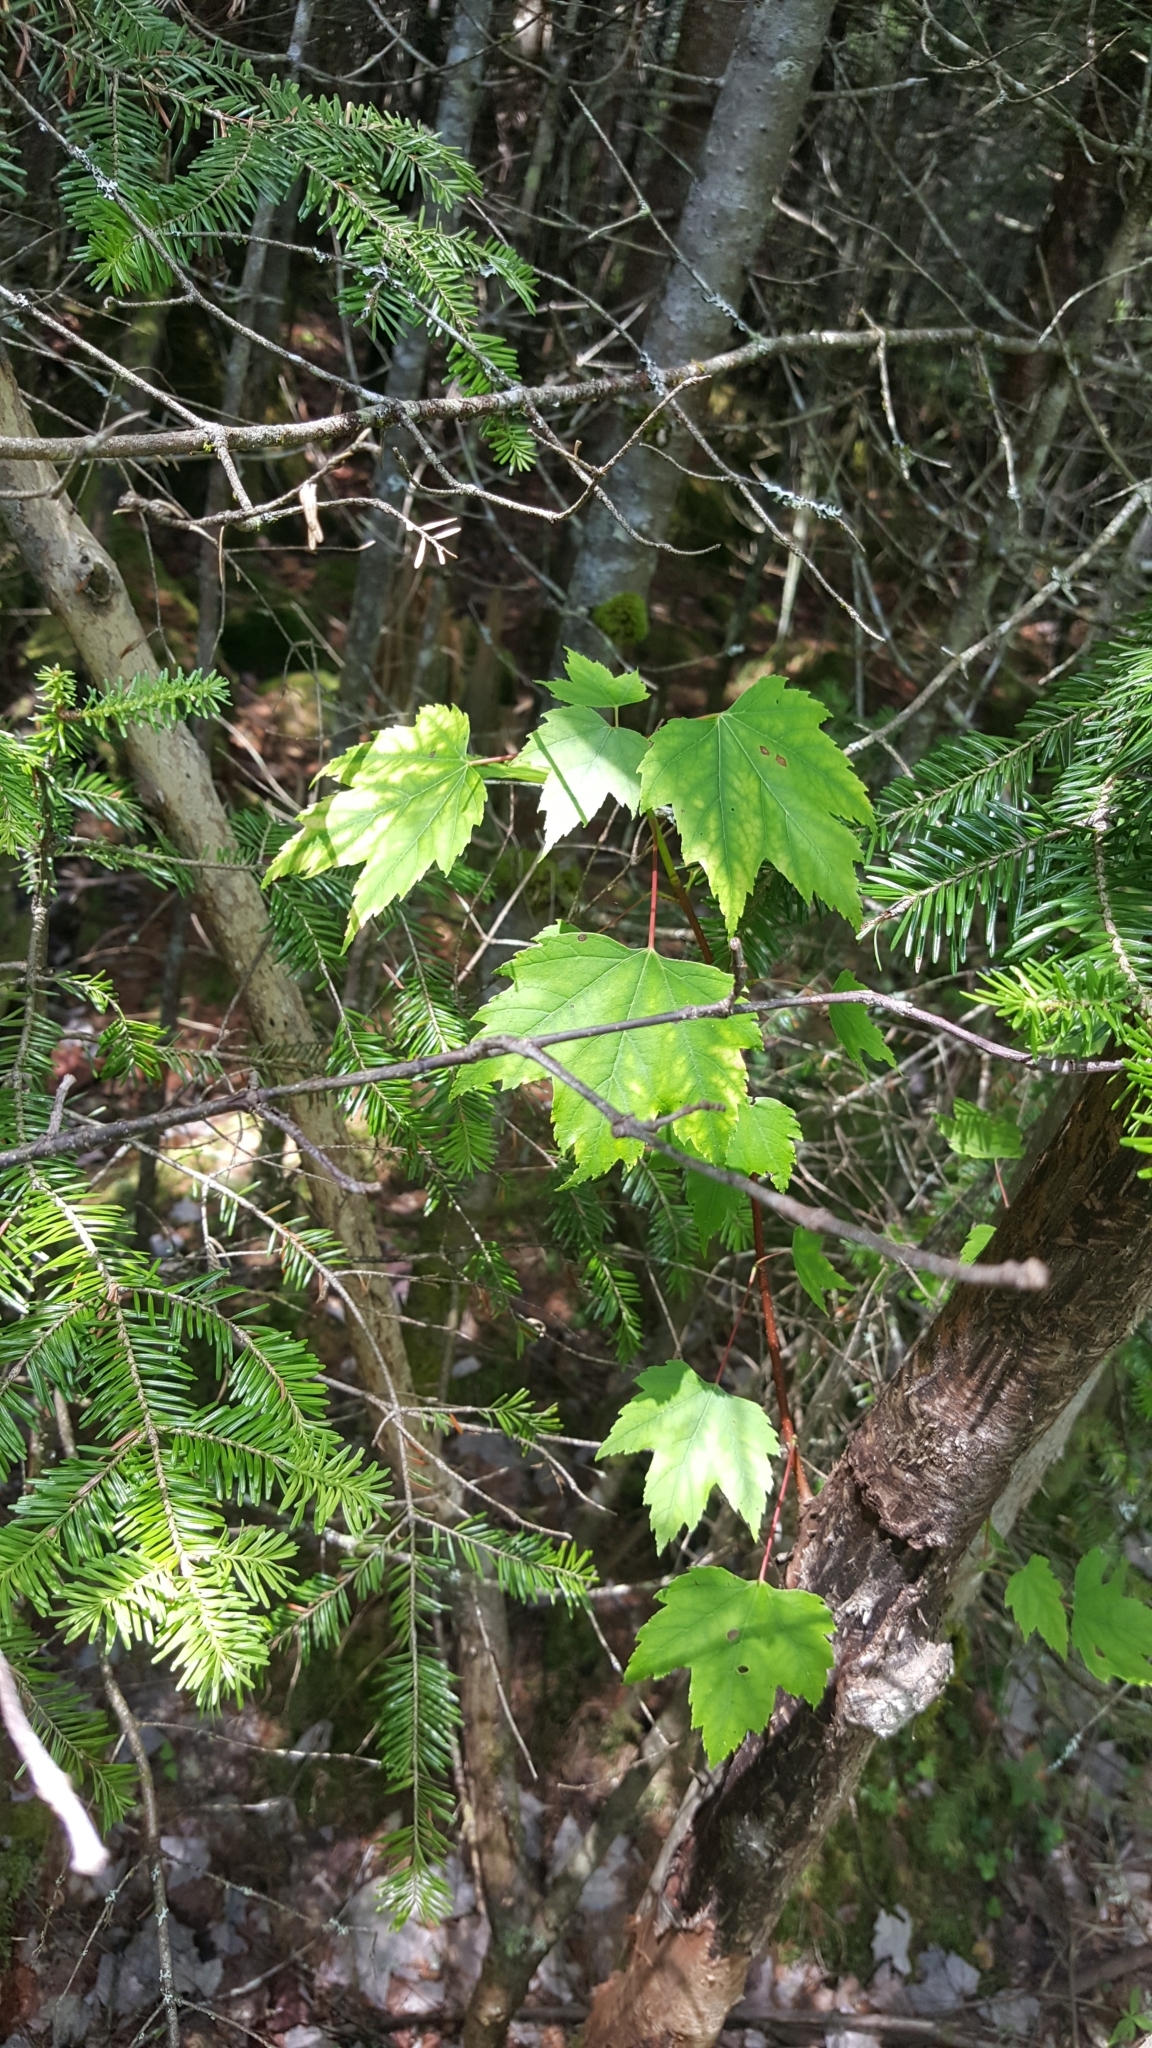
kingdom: Plantae
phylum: Tracheophyta
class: Magnoliopsida
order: Sapindales
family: Sapindaceae
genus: Acer
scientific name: Acer rubrum
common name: Red maple
